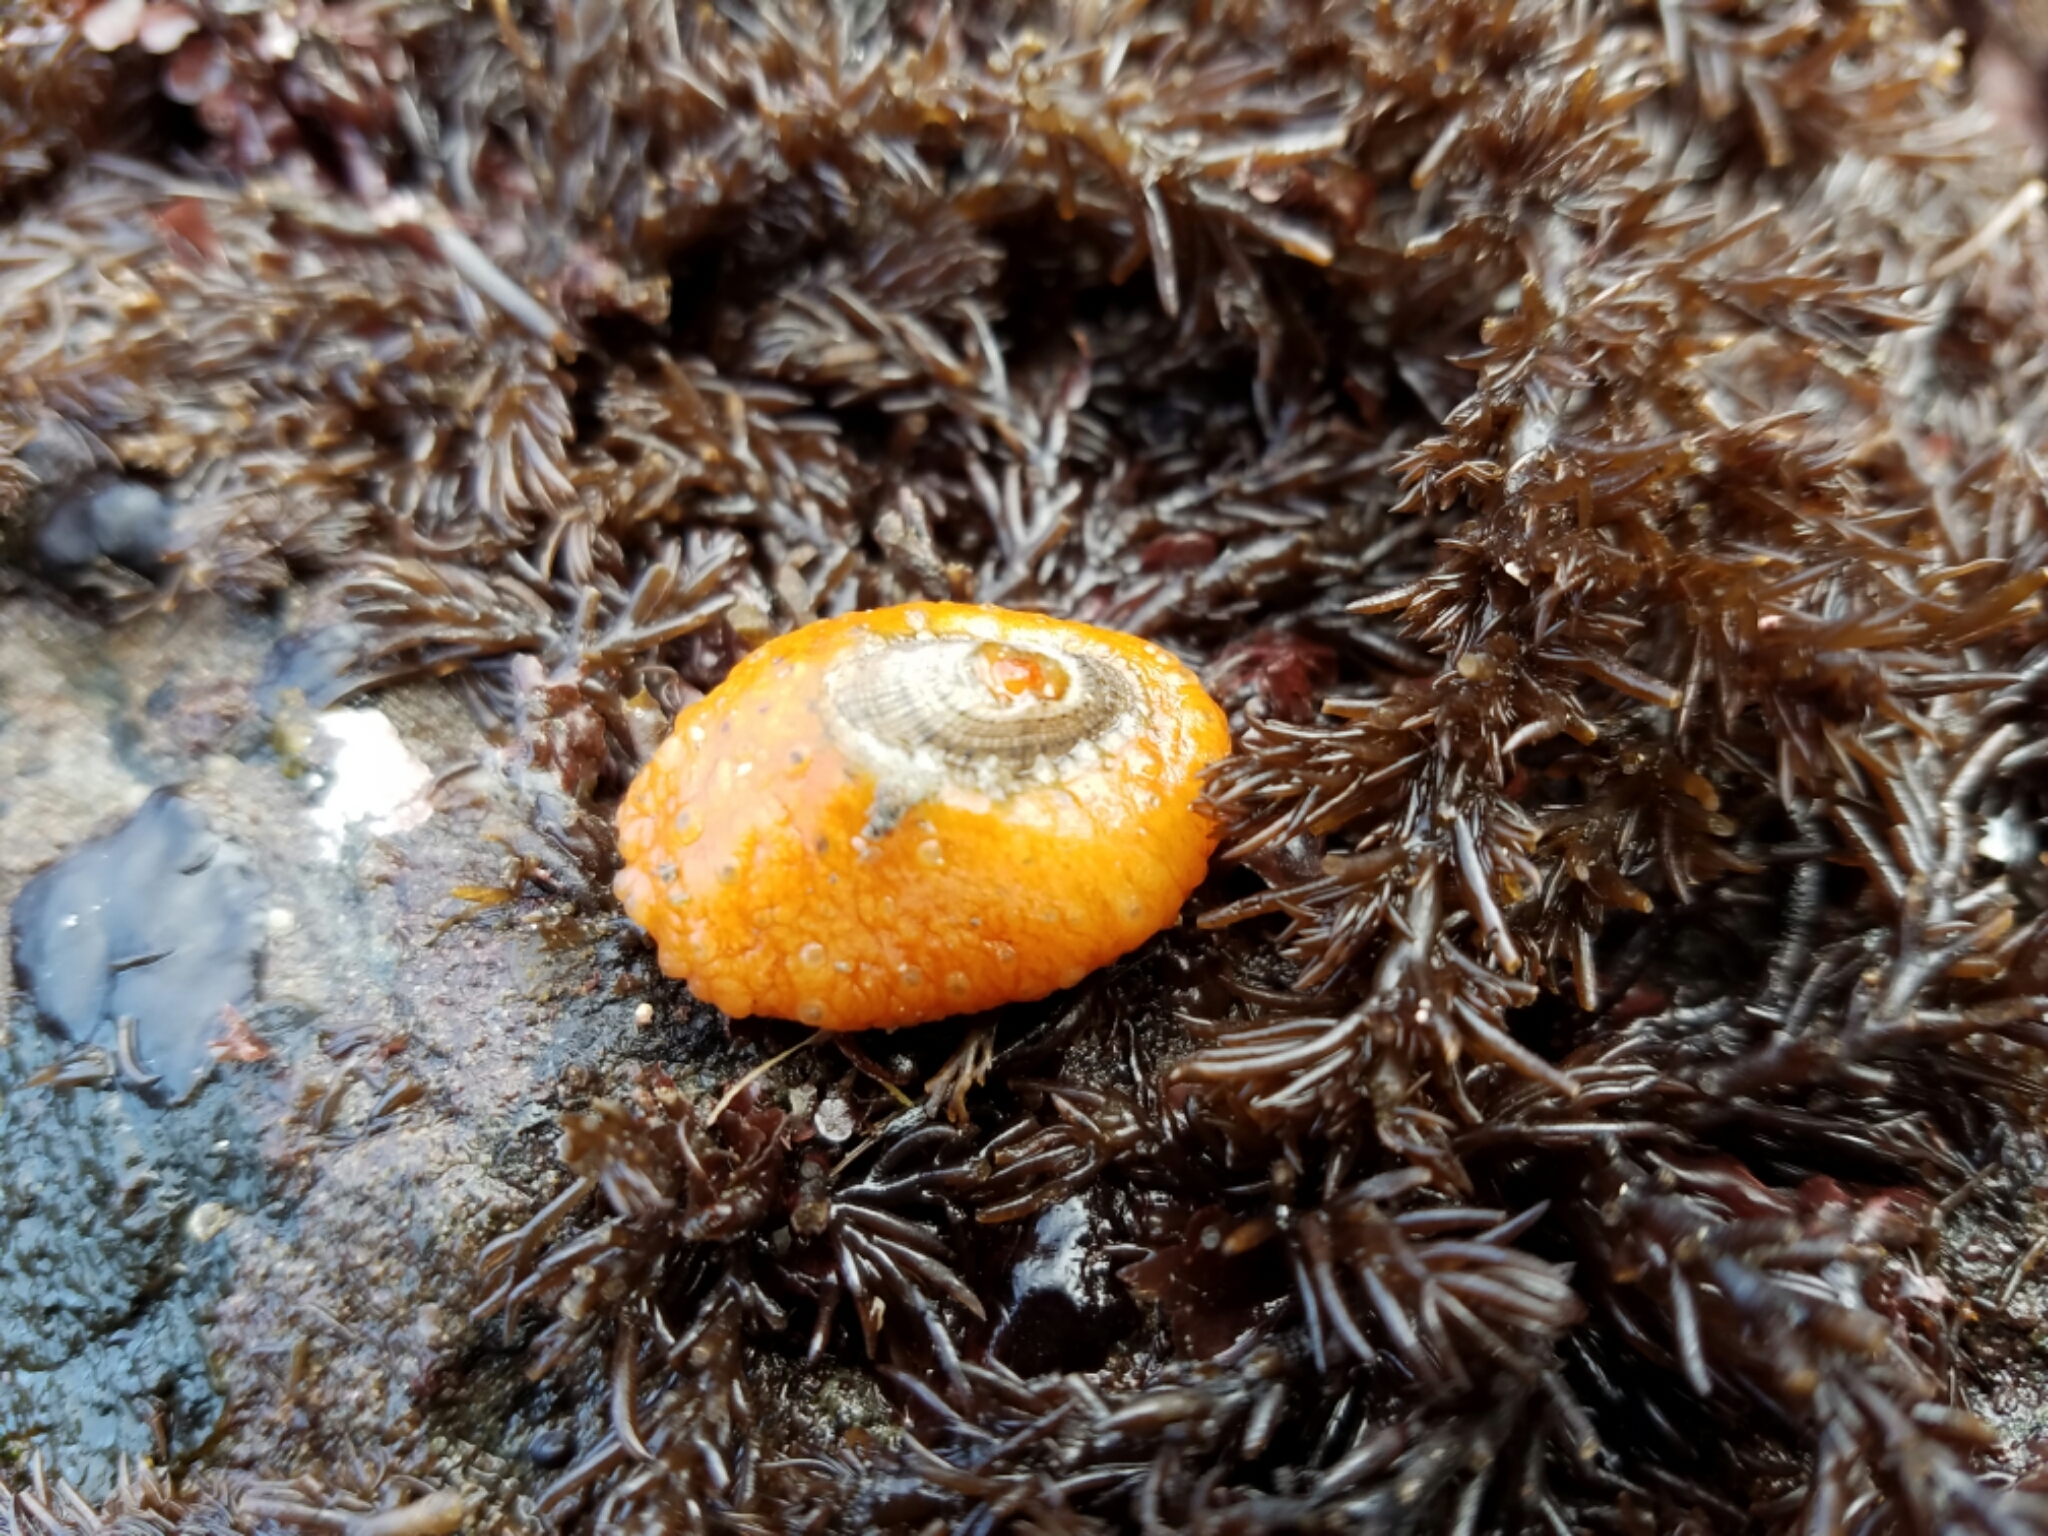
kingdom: Animalia
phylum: Mollusca
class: Gastropoda
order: Lepetellida
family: Fissurellidae
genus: Fissurellidea
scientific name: Fissurellidea bimaculata
